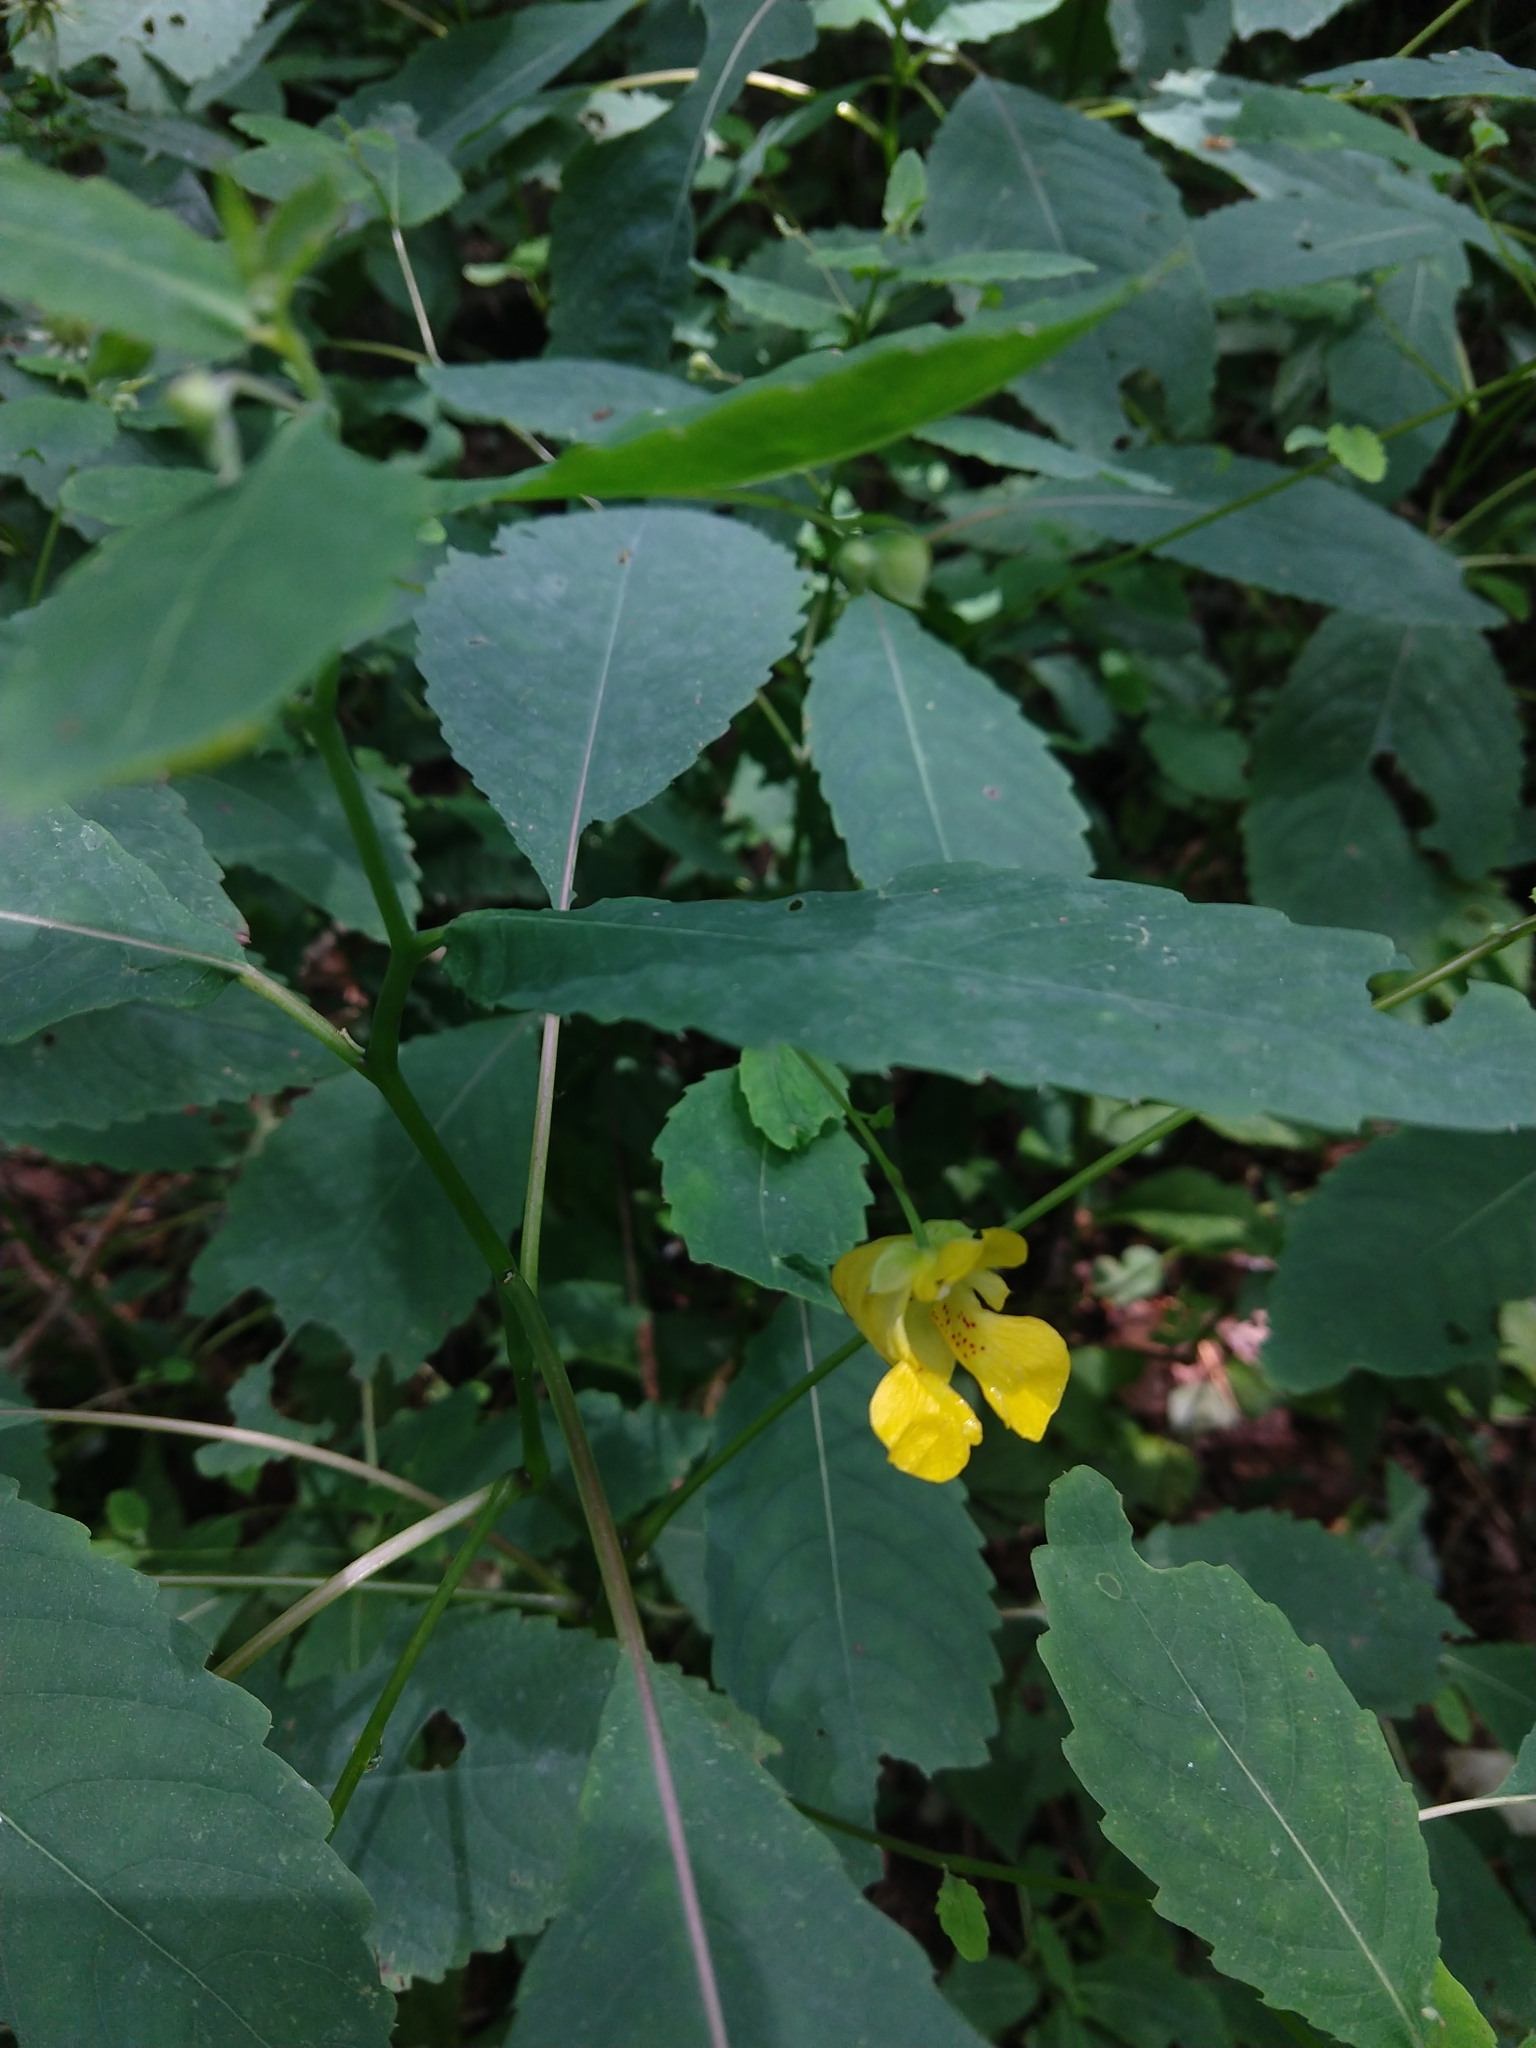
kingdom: Plantae
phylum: Tracheophyta
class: Magnoliopsida
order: Ericales
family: Balsaminaceae
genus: Impatiens
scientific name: Impatiens pallida
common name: Pale snapweed
